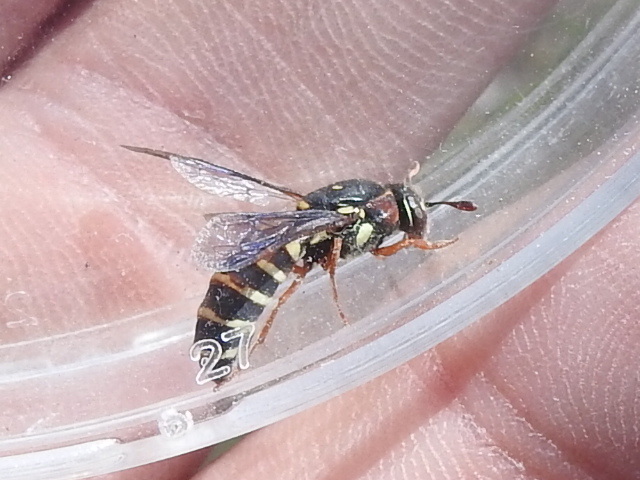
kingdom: Animalia
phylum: Arthropoda
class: Insecta
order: Hymenoptera
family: Masaridae
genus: Pseudomasaris
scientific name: Pseudomasaris texanus
